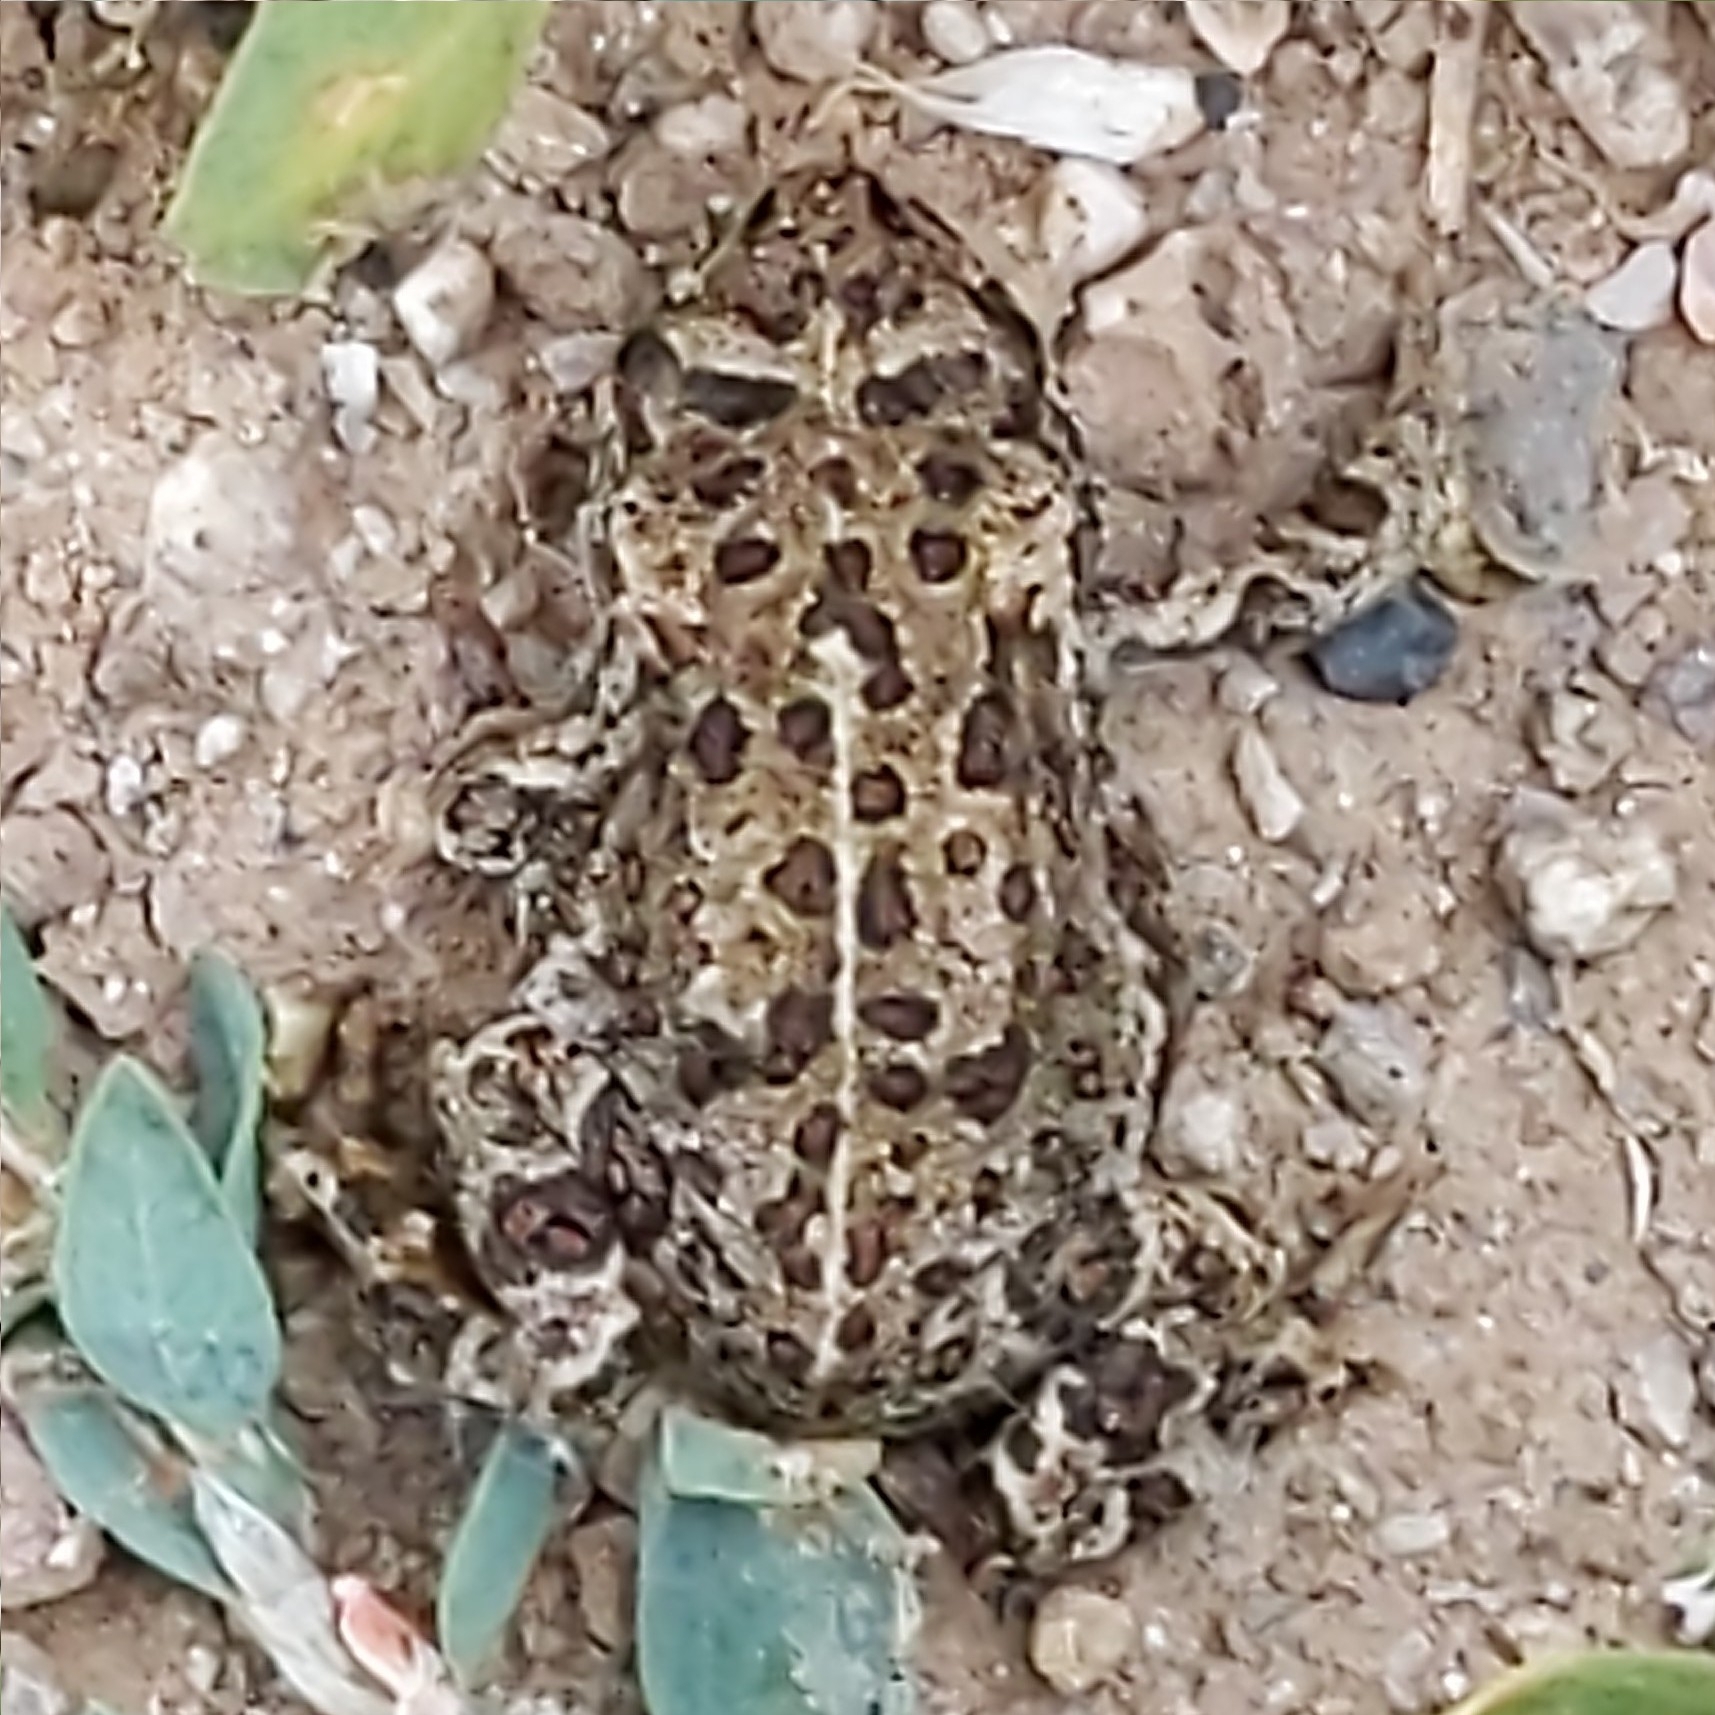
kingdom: Animalia
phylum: Chordata
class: Amphibia
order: Anura
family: Bufonidae
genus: Anaxyrus
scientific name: Anaxyrus boreas
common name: Western toad
